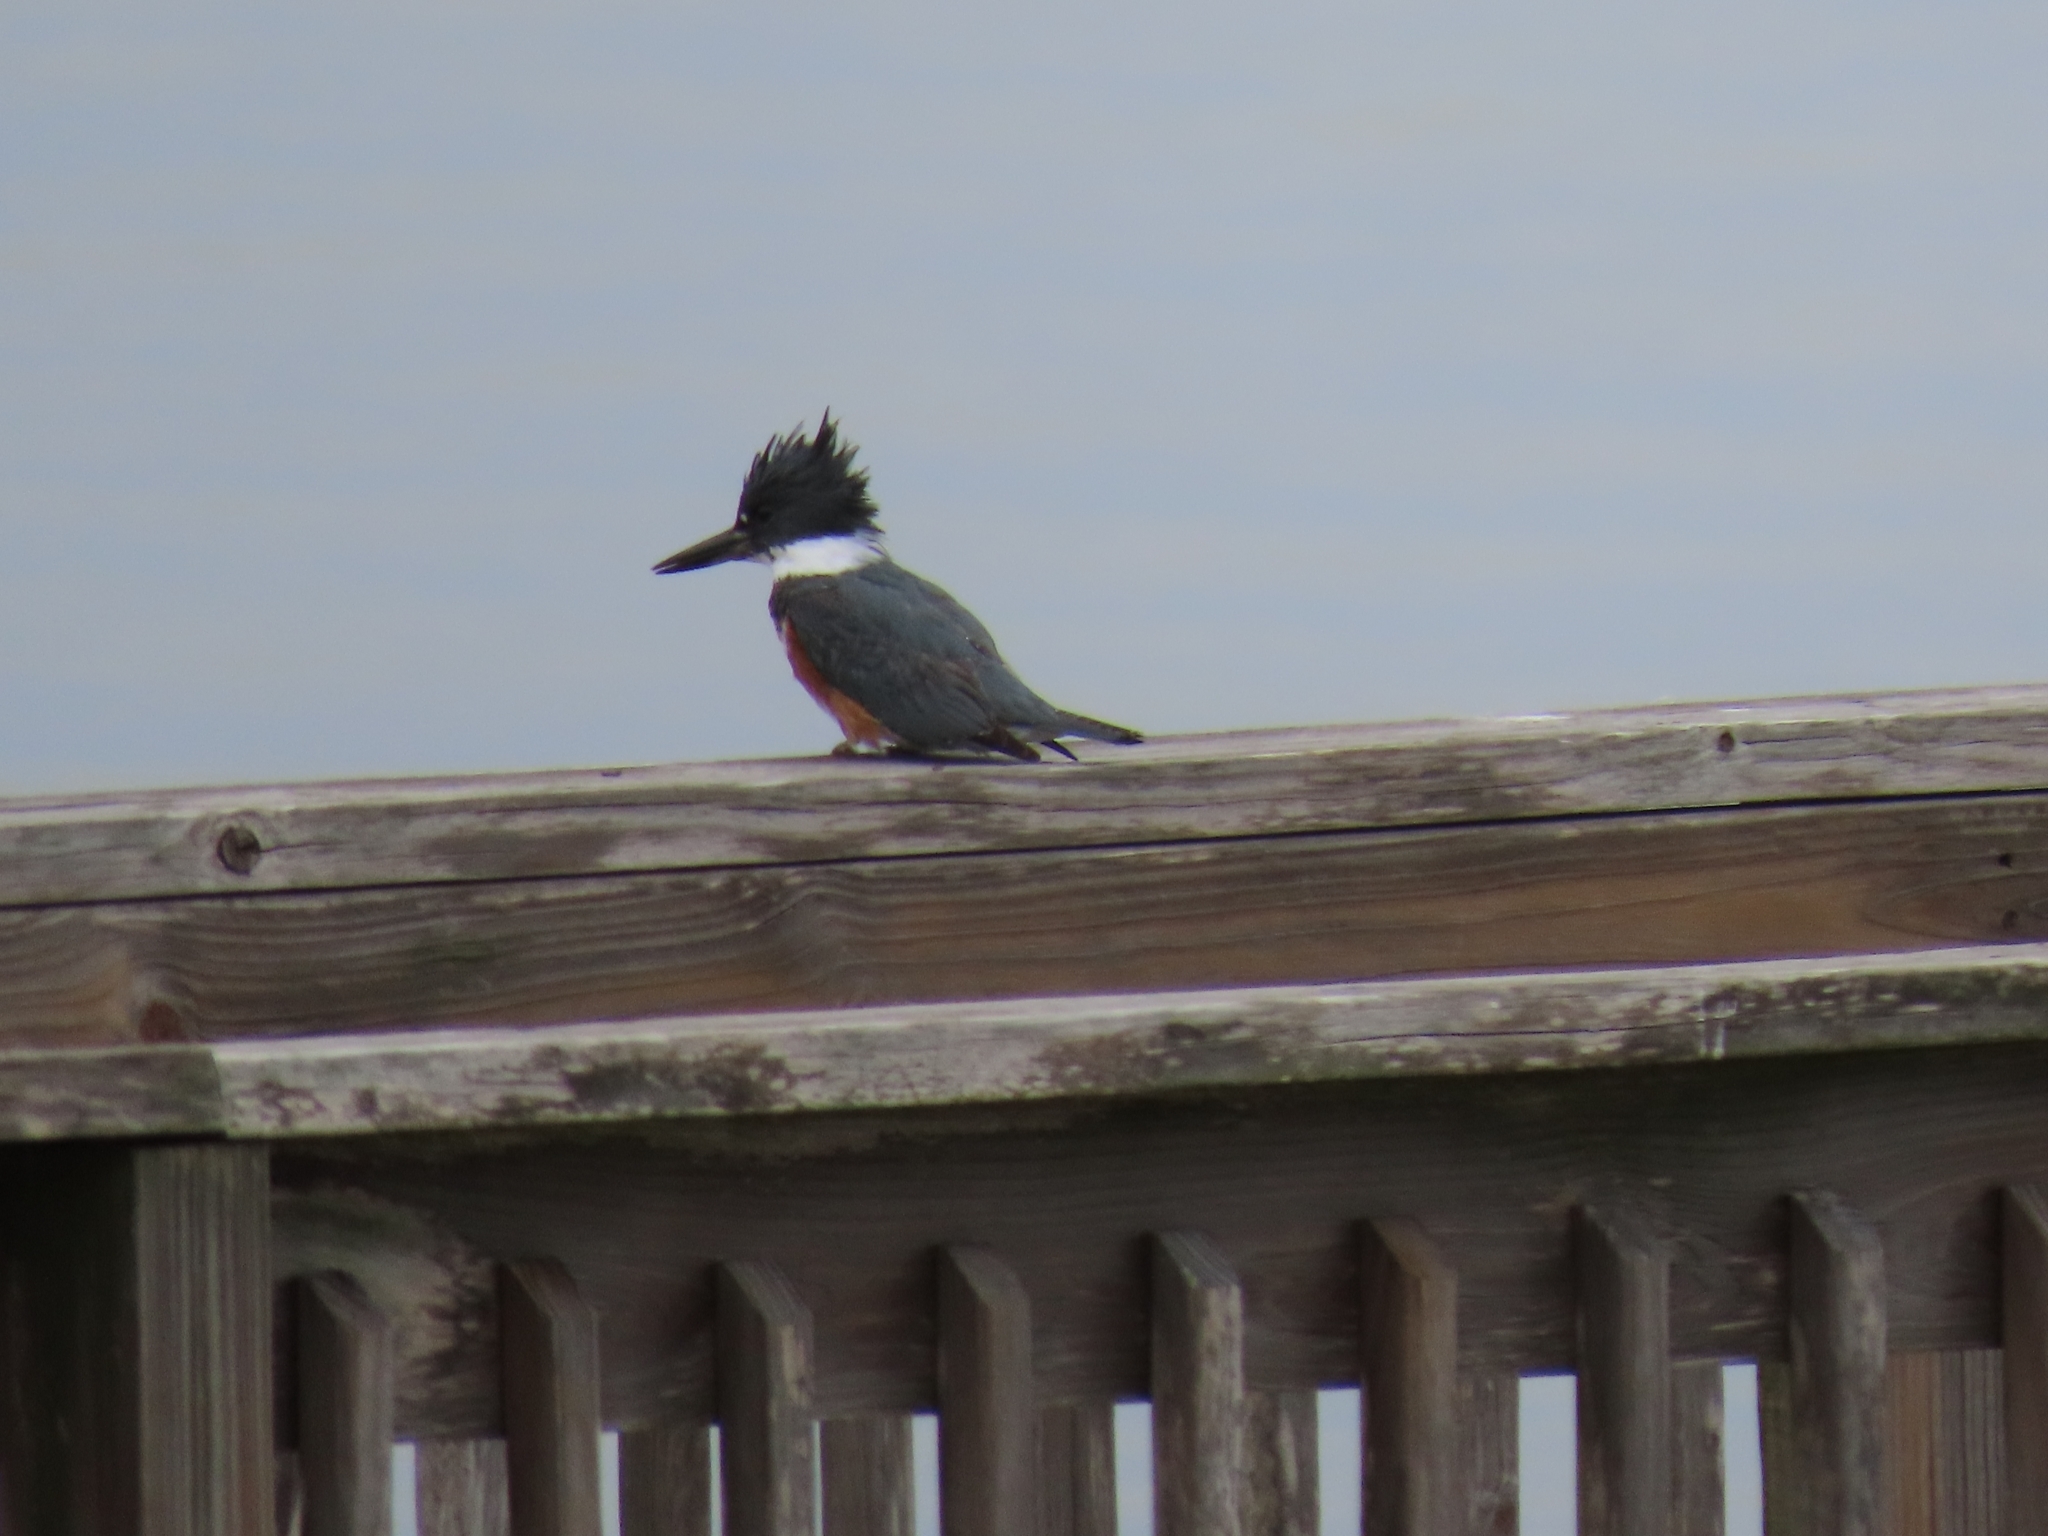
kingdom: Animalia
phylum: Chordata
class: Aves
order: Coraciiformes
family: Alcedinidae
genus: Megaceryle
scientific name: Megaceryle alcyon
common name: Belted kingfisher
